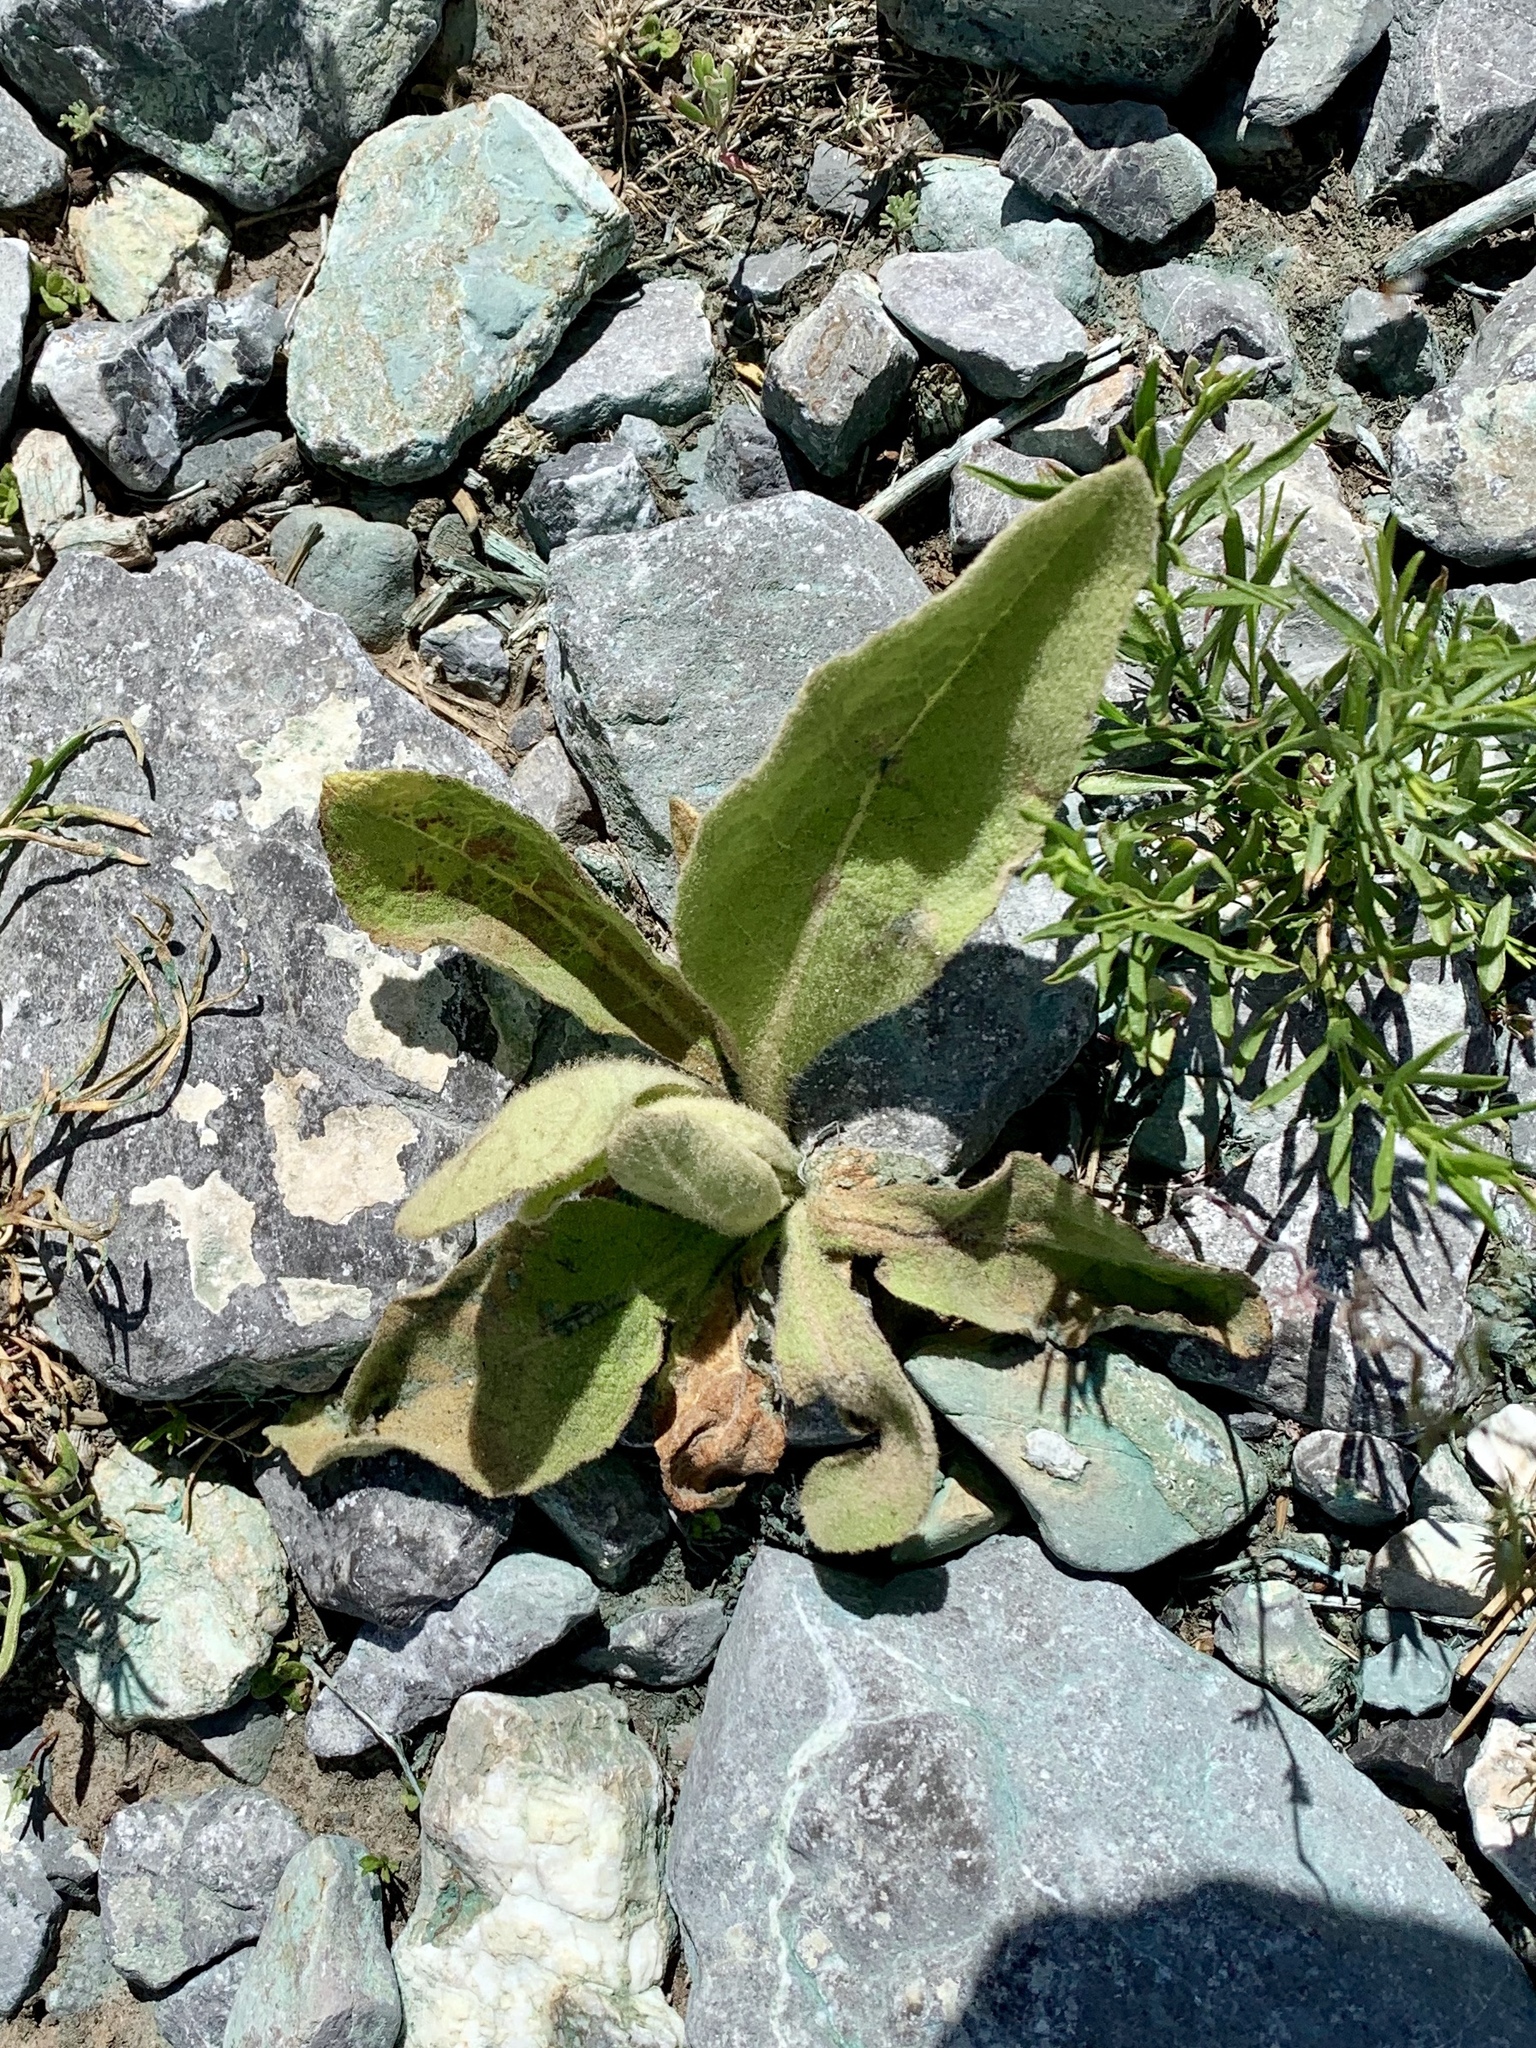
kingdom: Plantae
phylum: Tracheophyta
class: Magnoliopsida
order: Lamiales
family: Scrophulariaceae
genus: Verbascum
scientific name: Verbascum thapsus
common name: Common mullein
